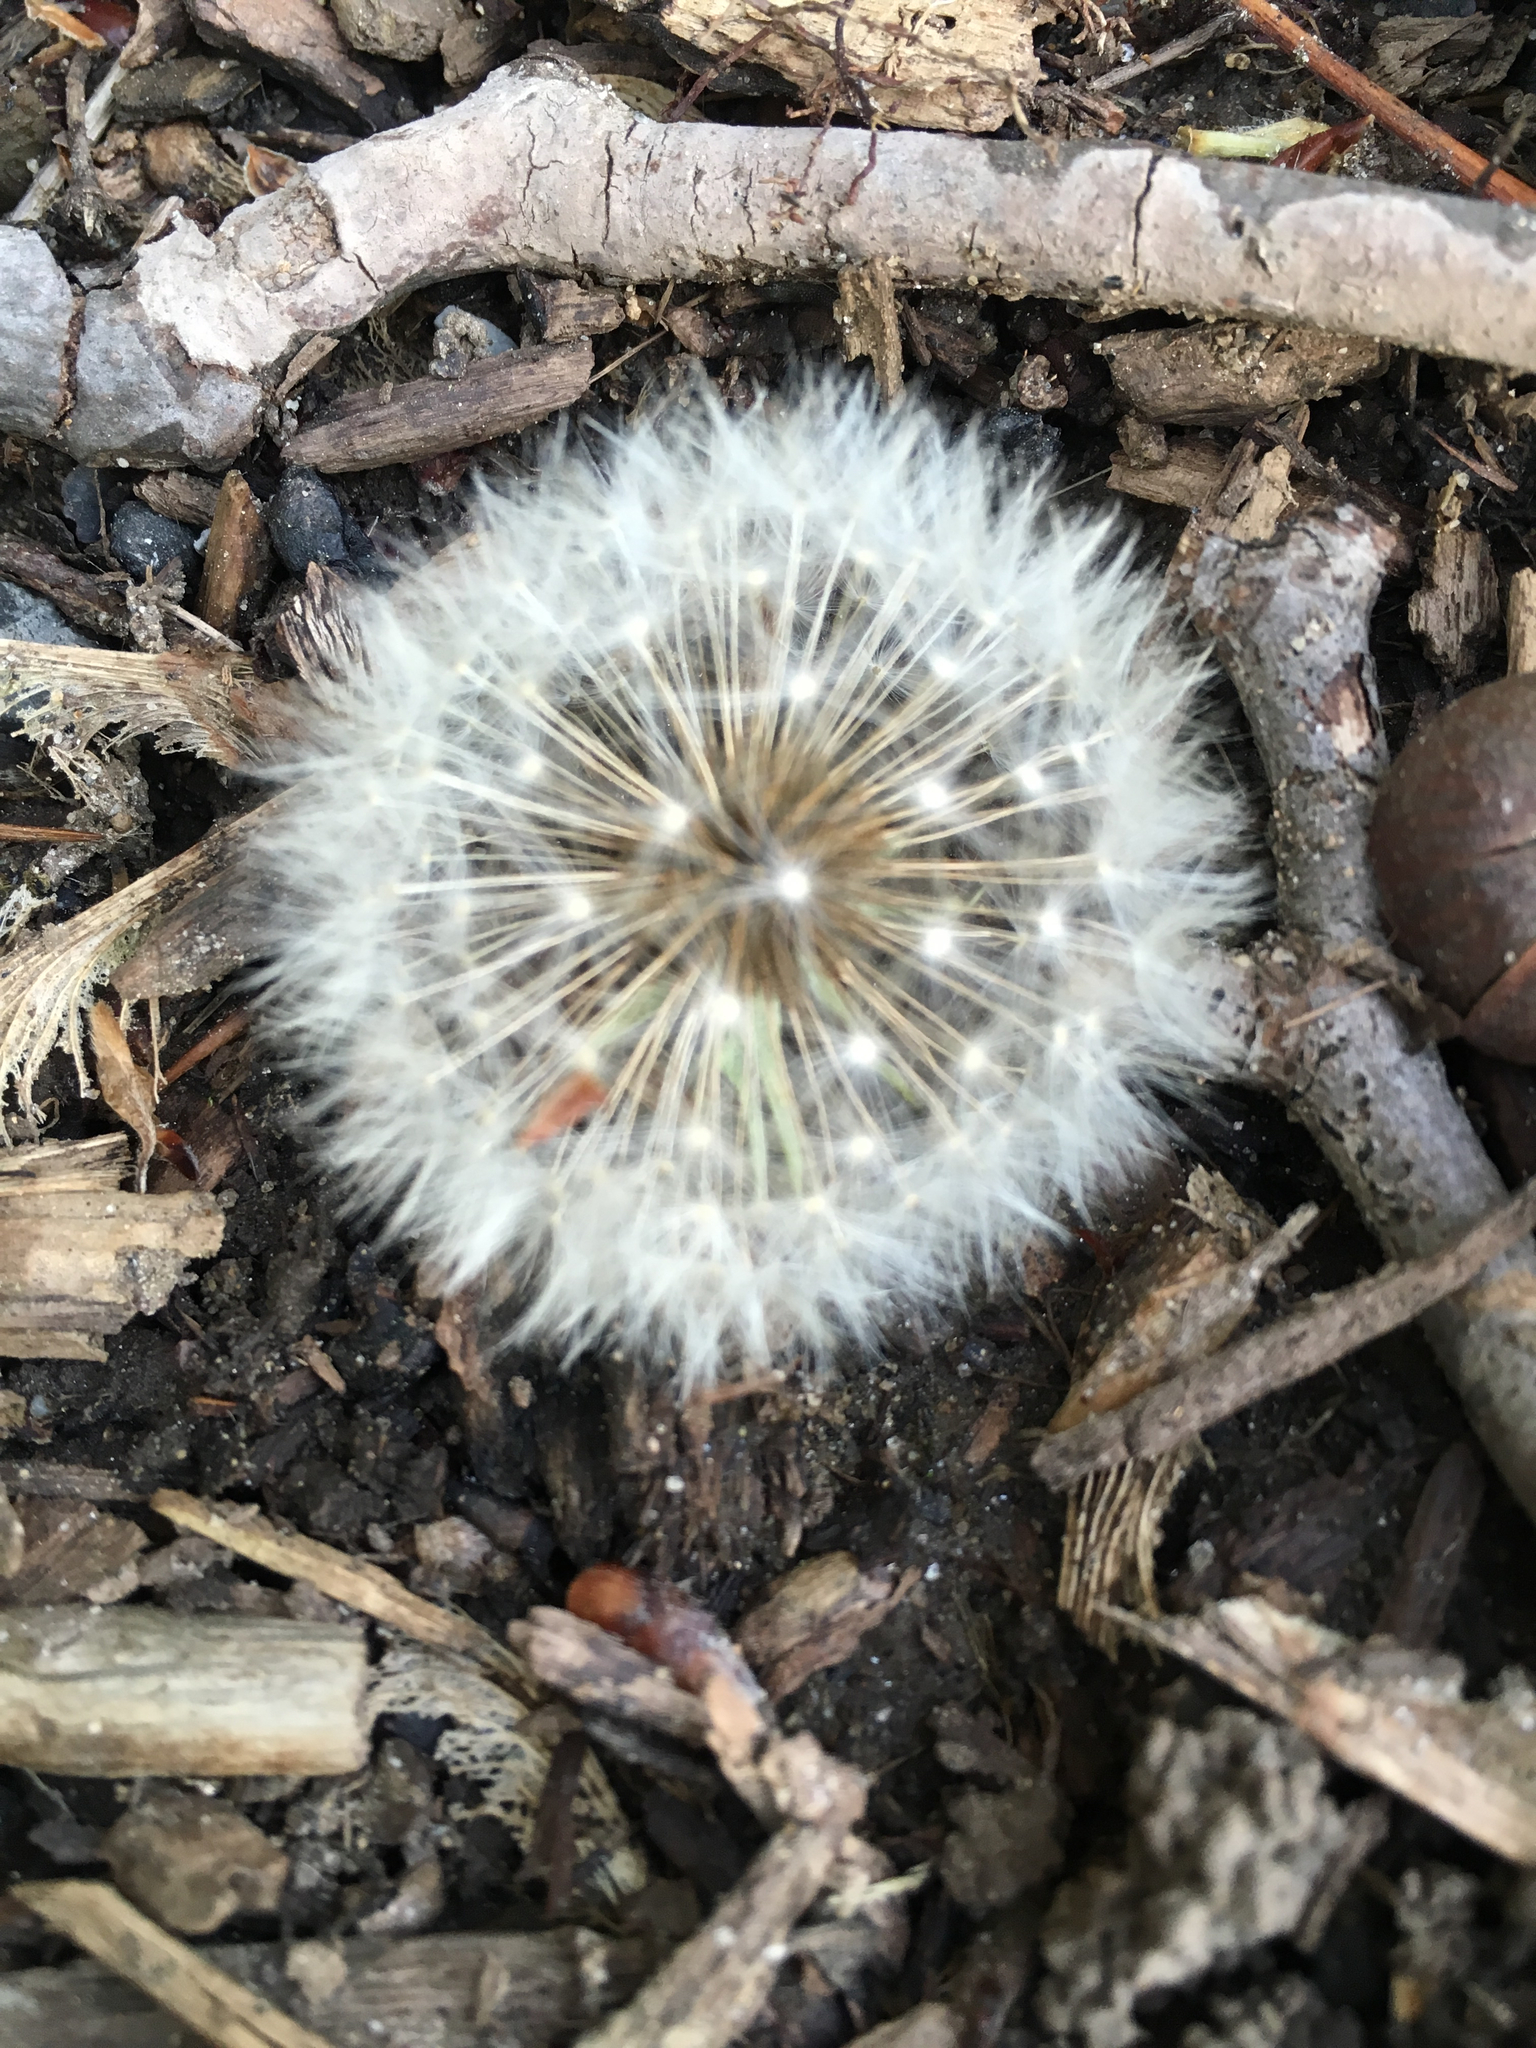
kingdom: Plantae
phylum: Tracheophyta
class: Magnoliopsida
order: Asterales
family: Asteraceae
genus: Taraxacum
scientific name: Taraxacum officinale
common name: Common dandelion
